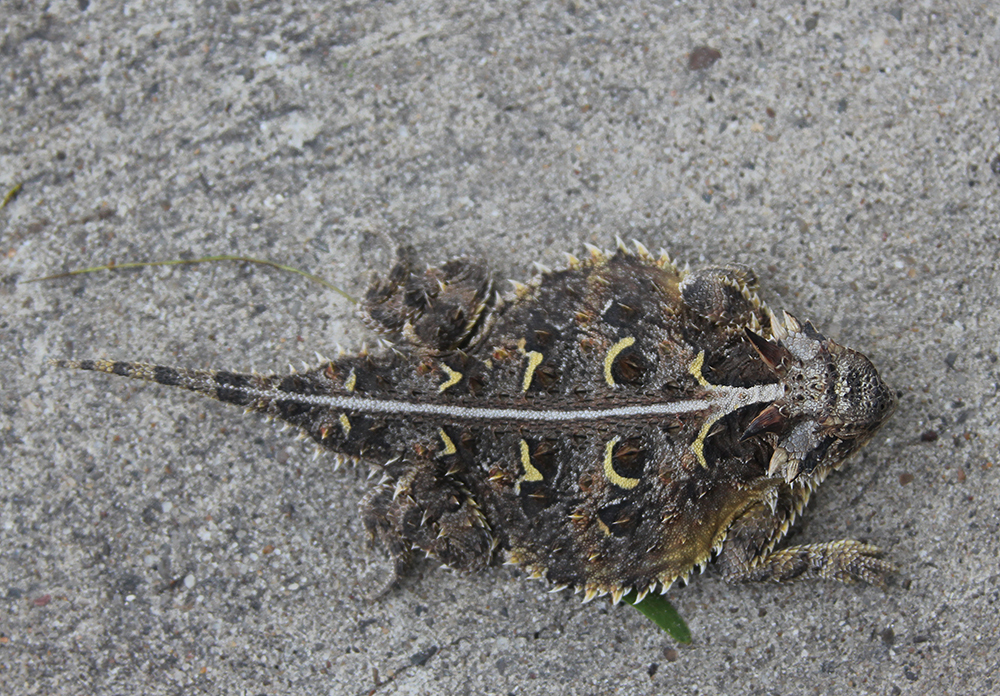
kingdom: Animalia
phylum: Chordata
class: Squamata
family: Phrynosomatidae
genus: Phrynosoma
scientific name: Phrynosoma cornutum
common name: Texas horned lizard
